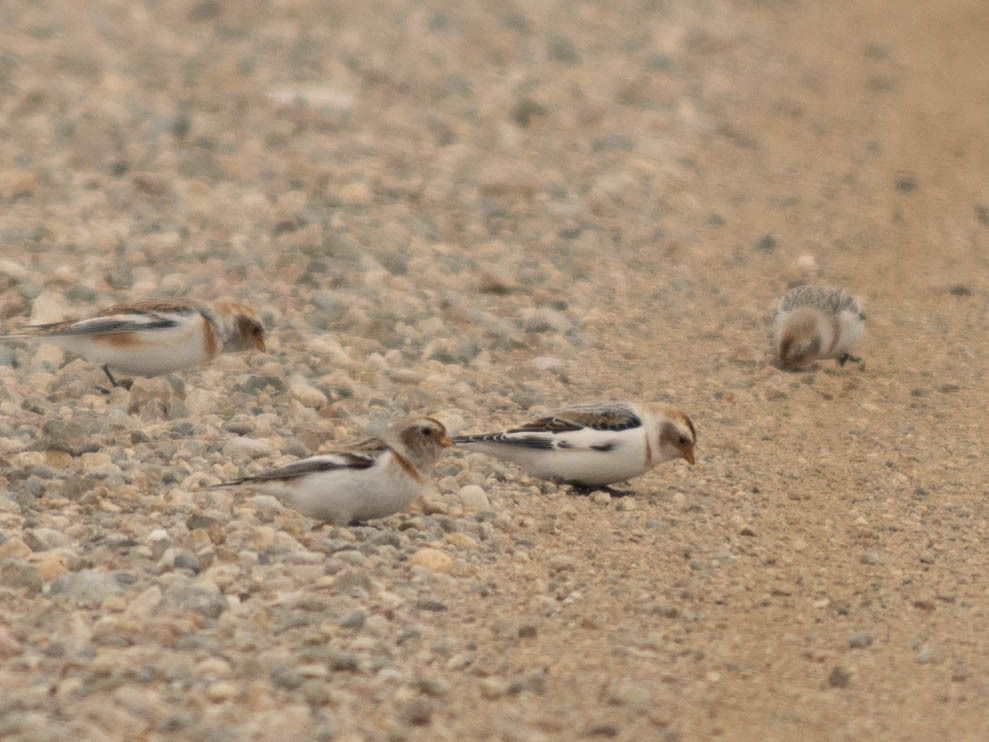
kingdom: Animalia
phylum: Chordata
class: Aves
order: Passeriformes
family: Calcariidae
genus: Plectrophenax
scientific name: Plectrophenax nivalis
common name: Snow bunting
